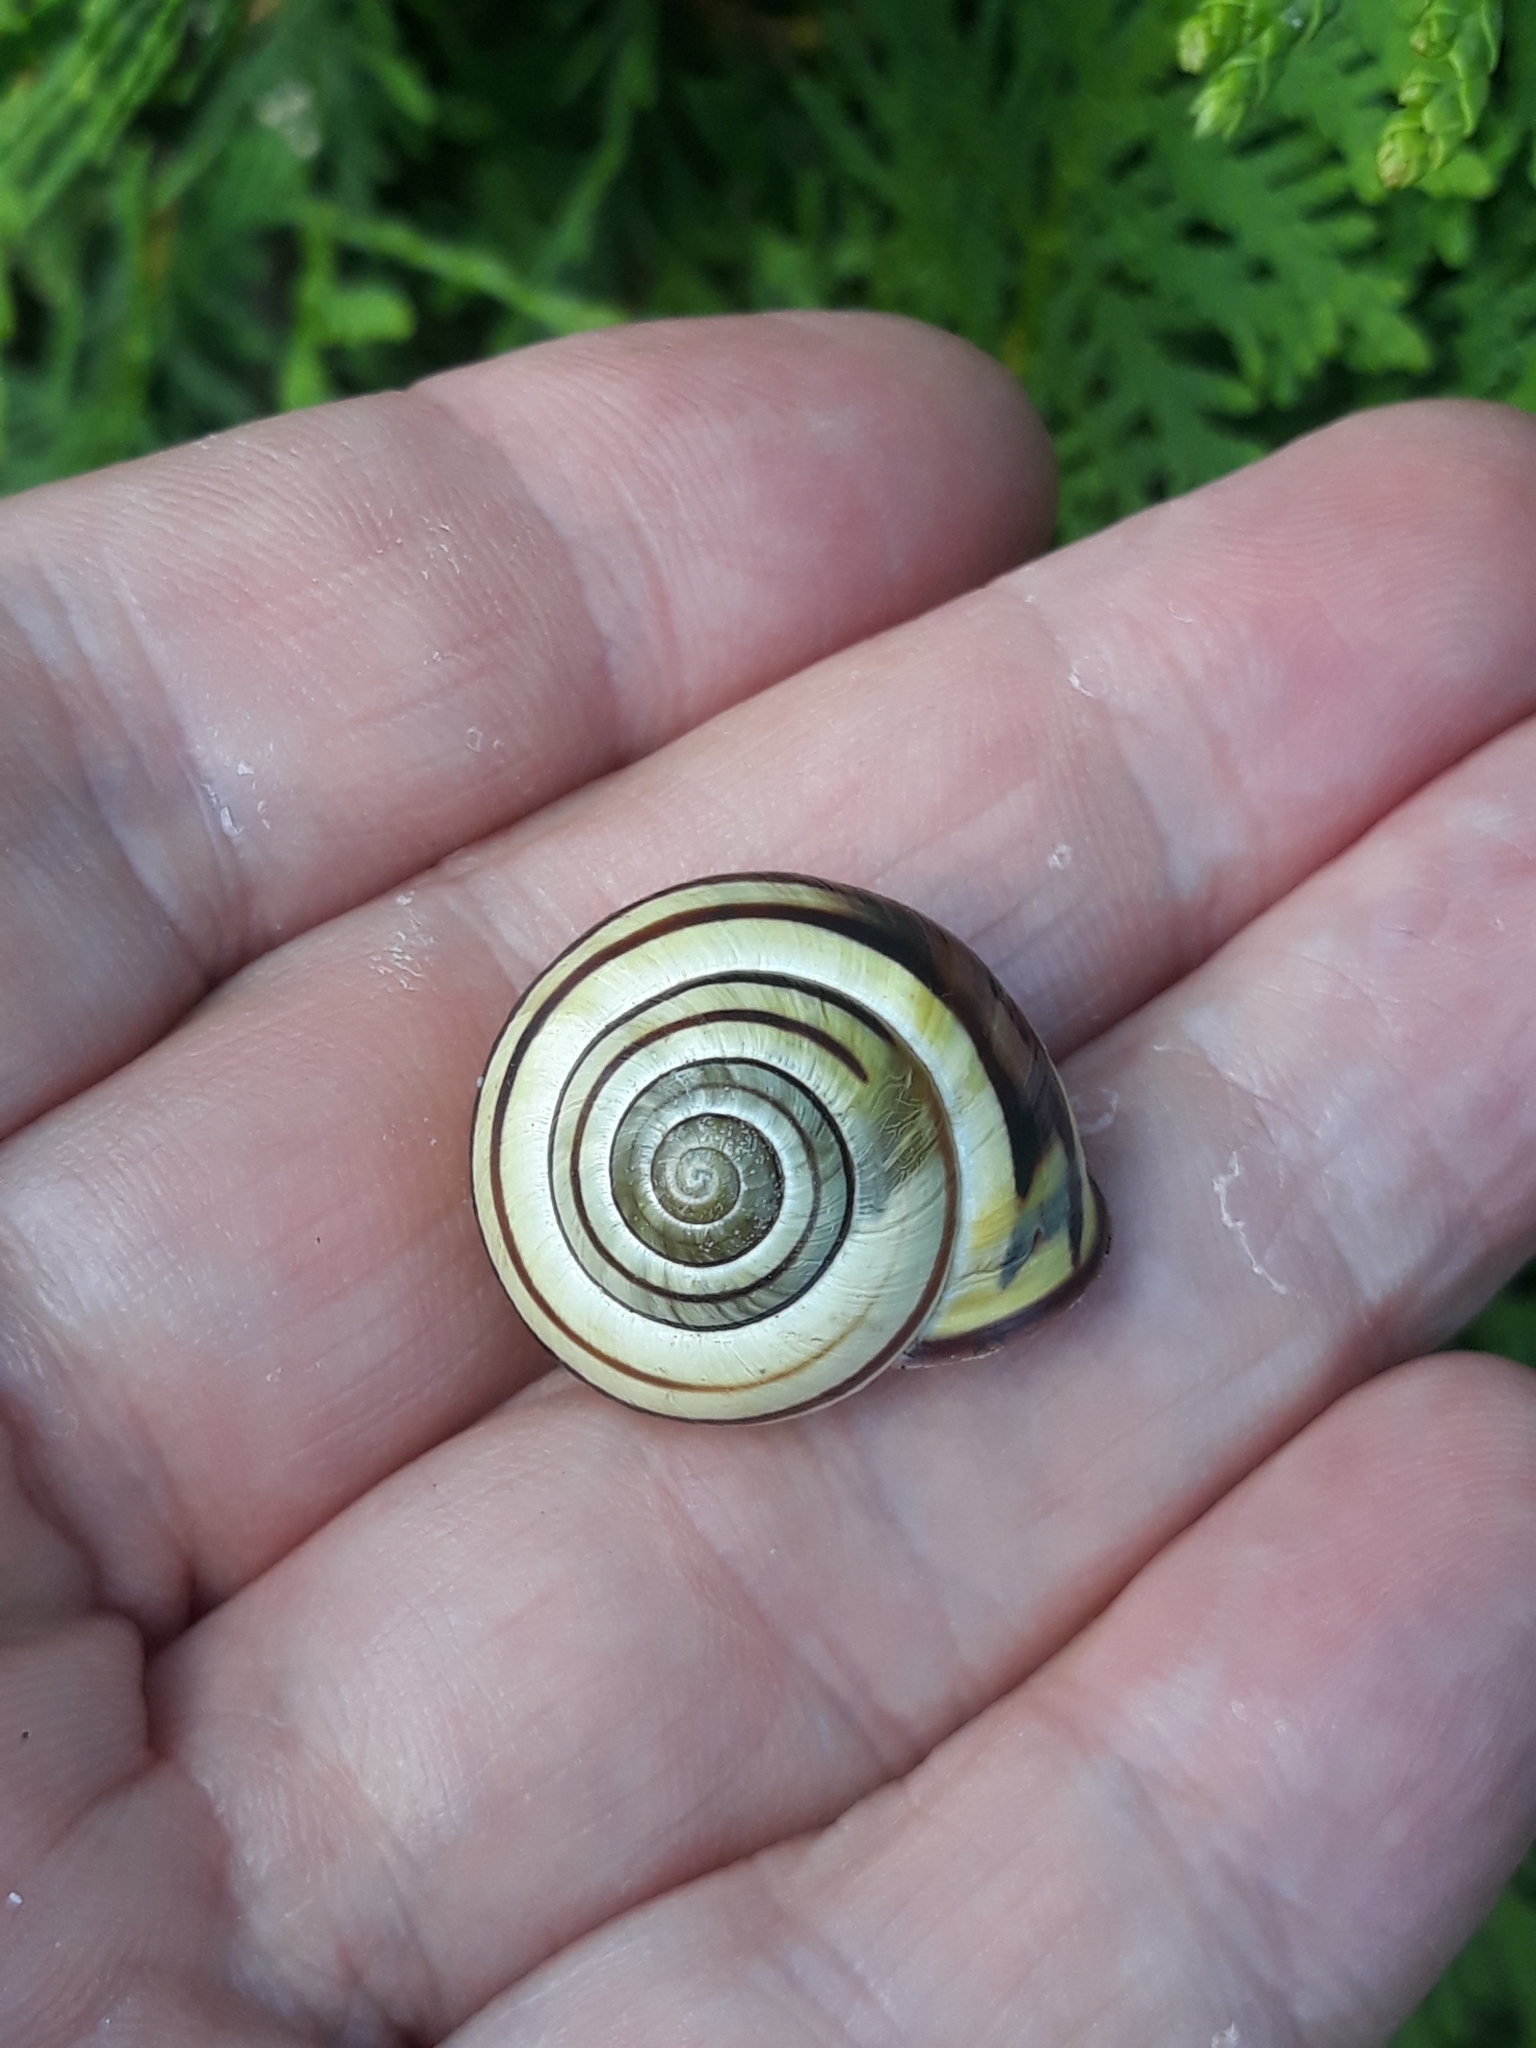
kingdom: Animalia
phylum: Mollusca
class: Gastropoda
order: Stylommatophora
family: Helicidae
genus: Cepaea
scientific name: Cepaea nemoralis
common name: Grovesnail
